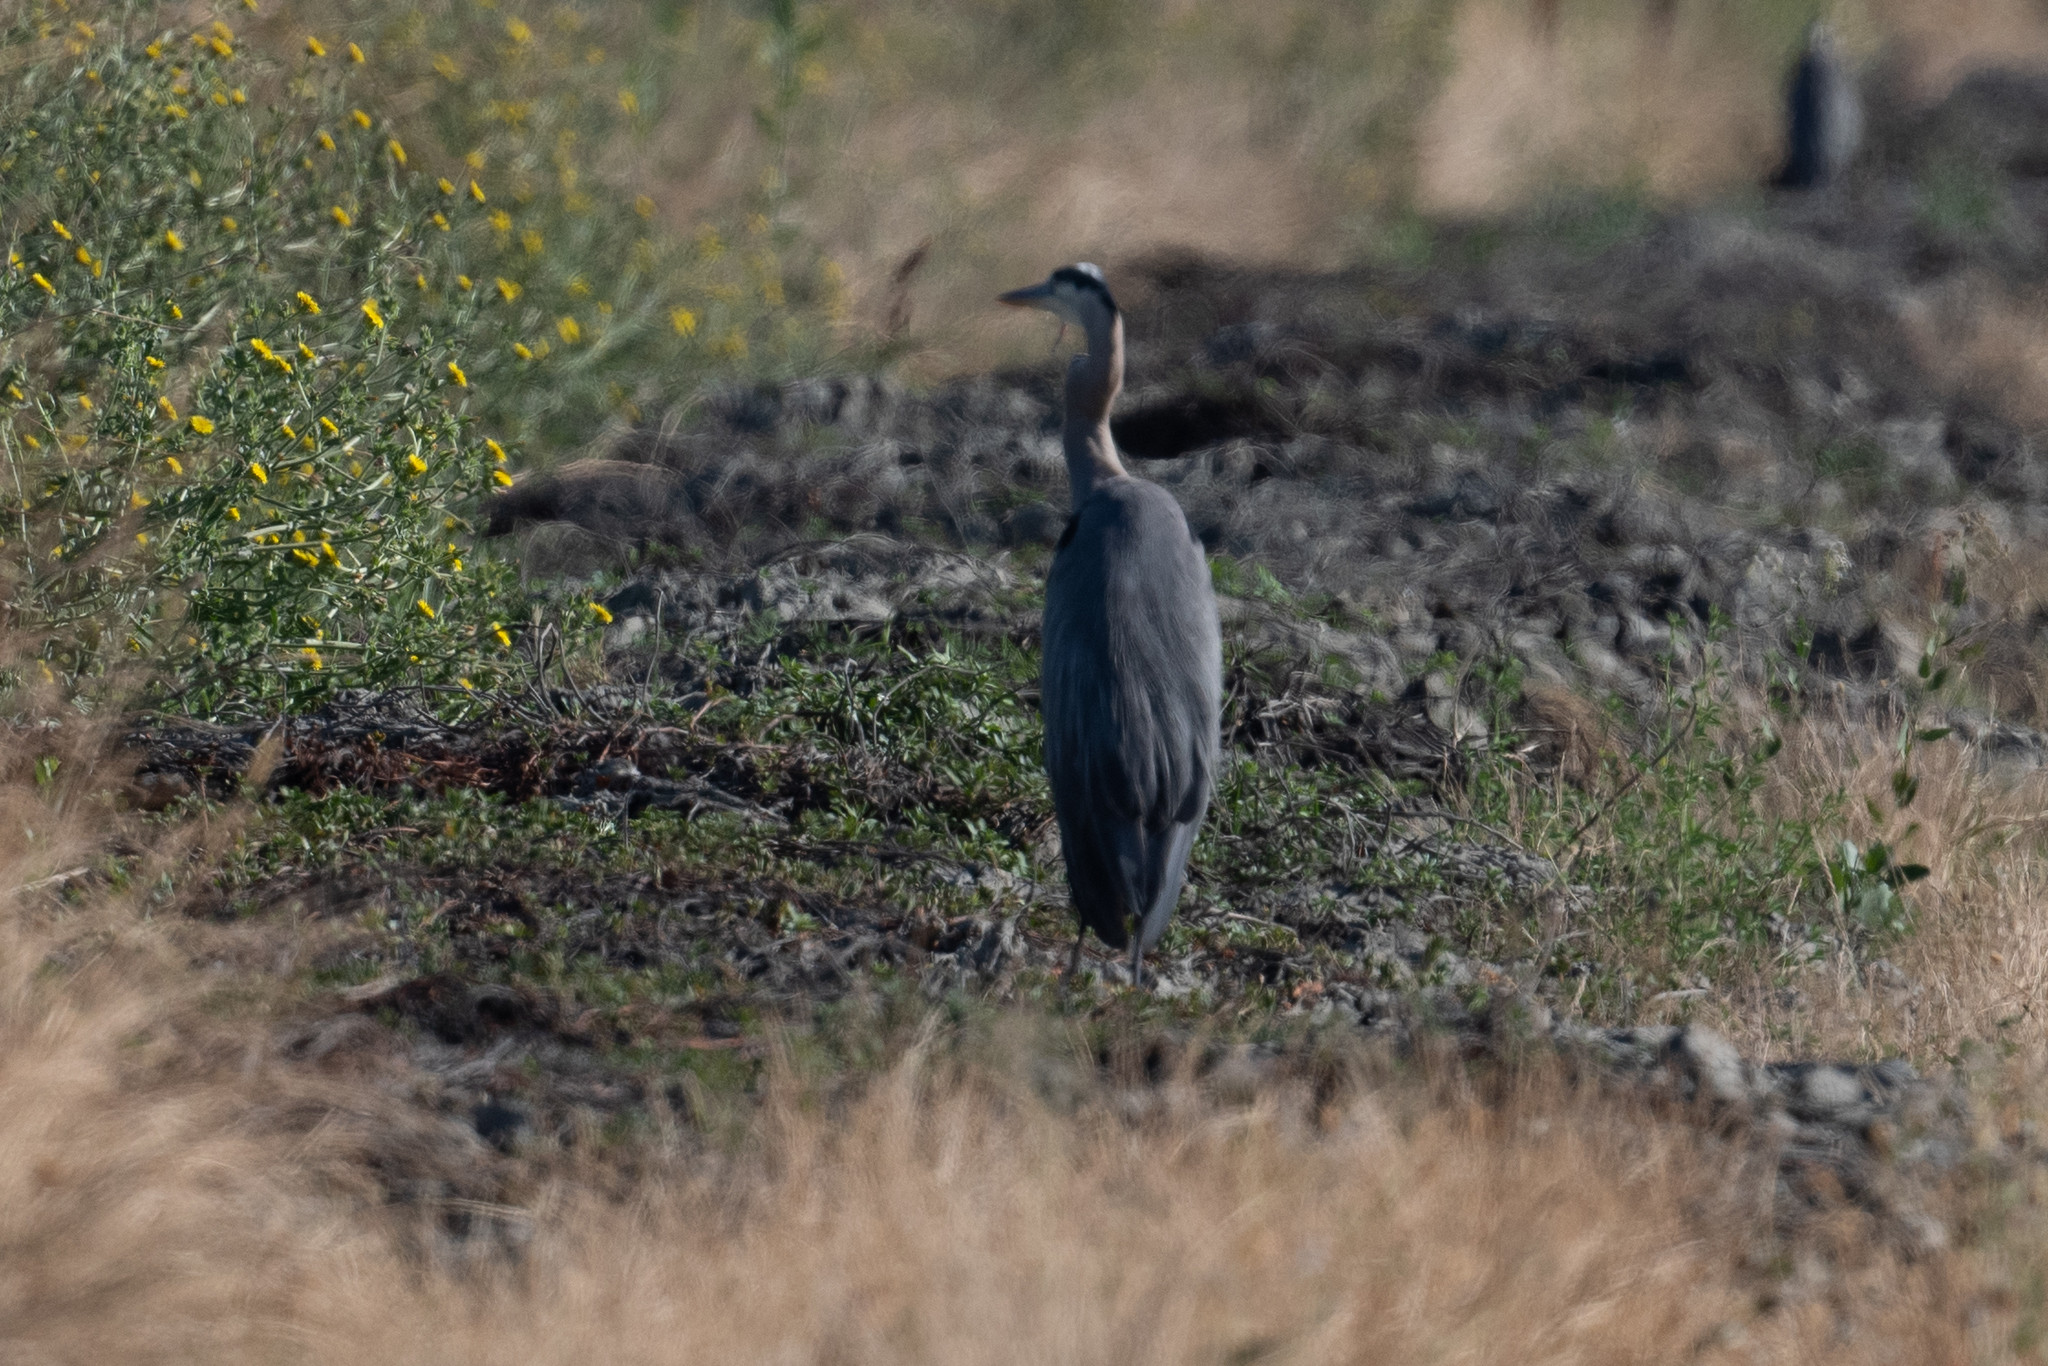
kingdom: Animalia
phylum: Chordata
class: Aves
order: Pelecaniformes
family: Ardeidae
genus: Ardea
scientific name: Ardea herodias
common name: Great blue heron
